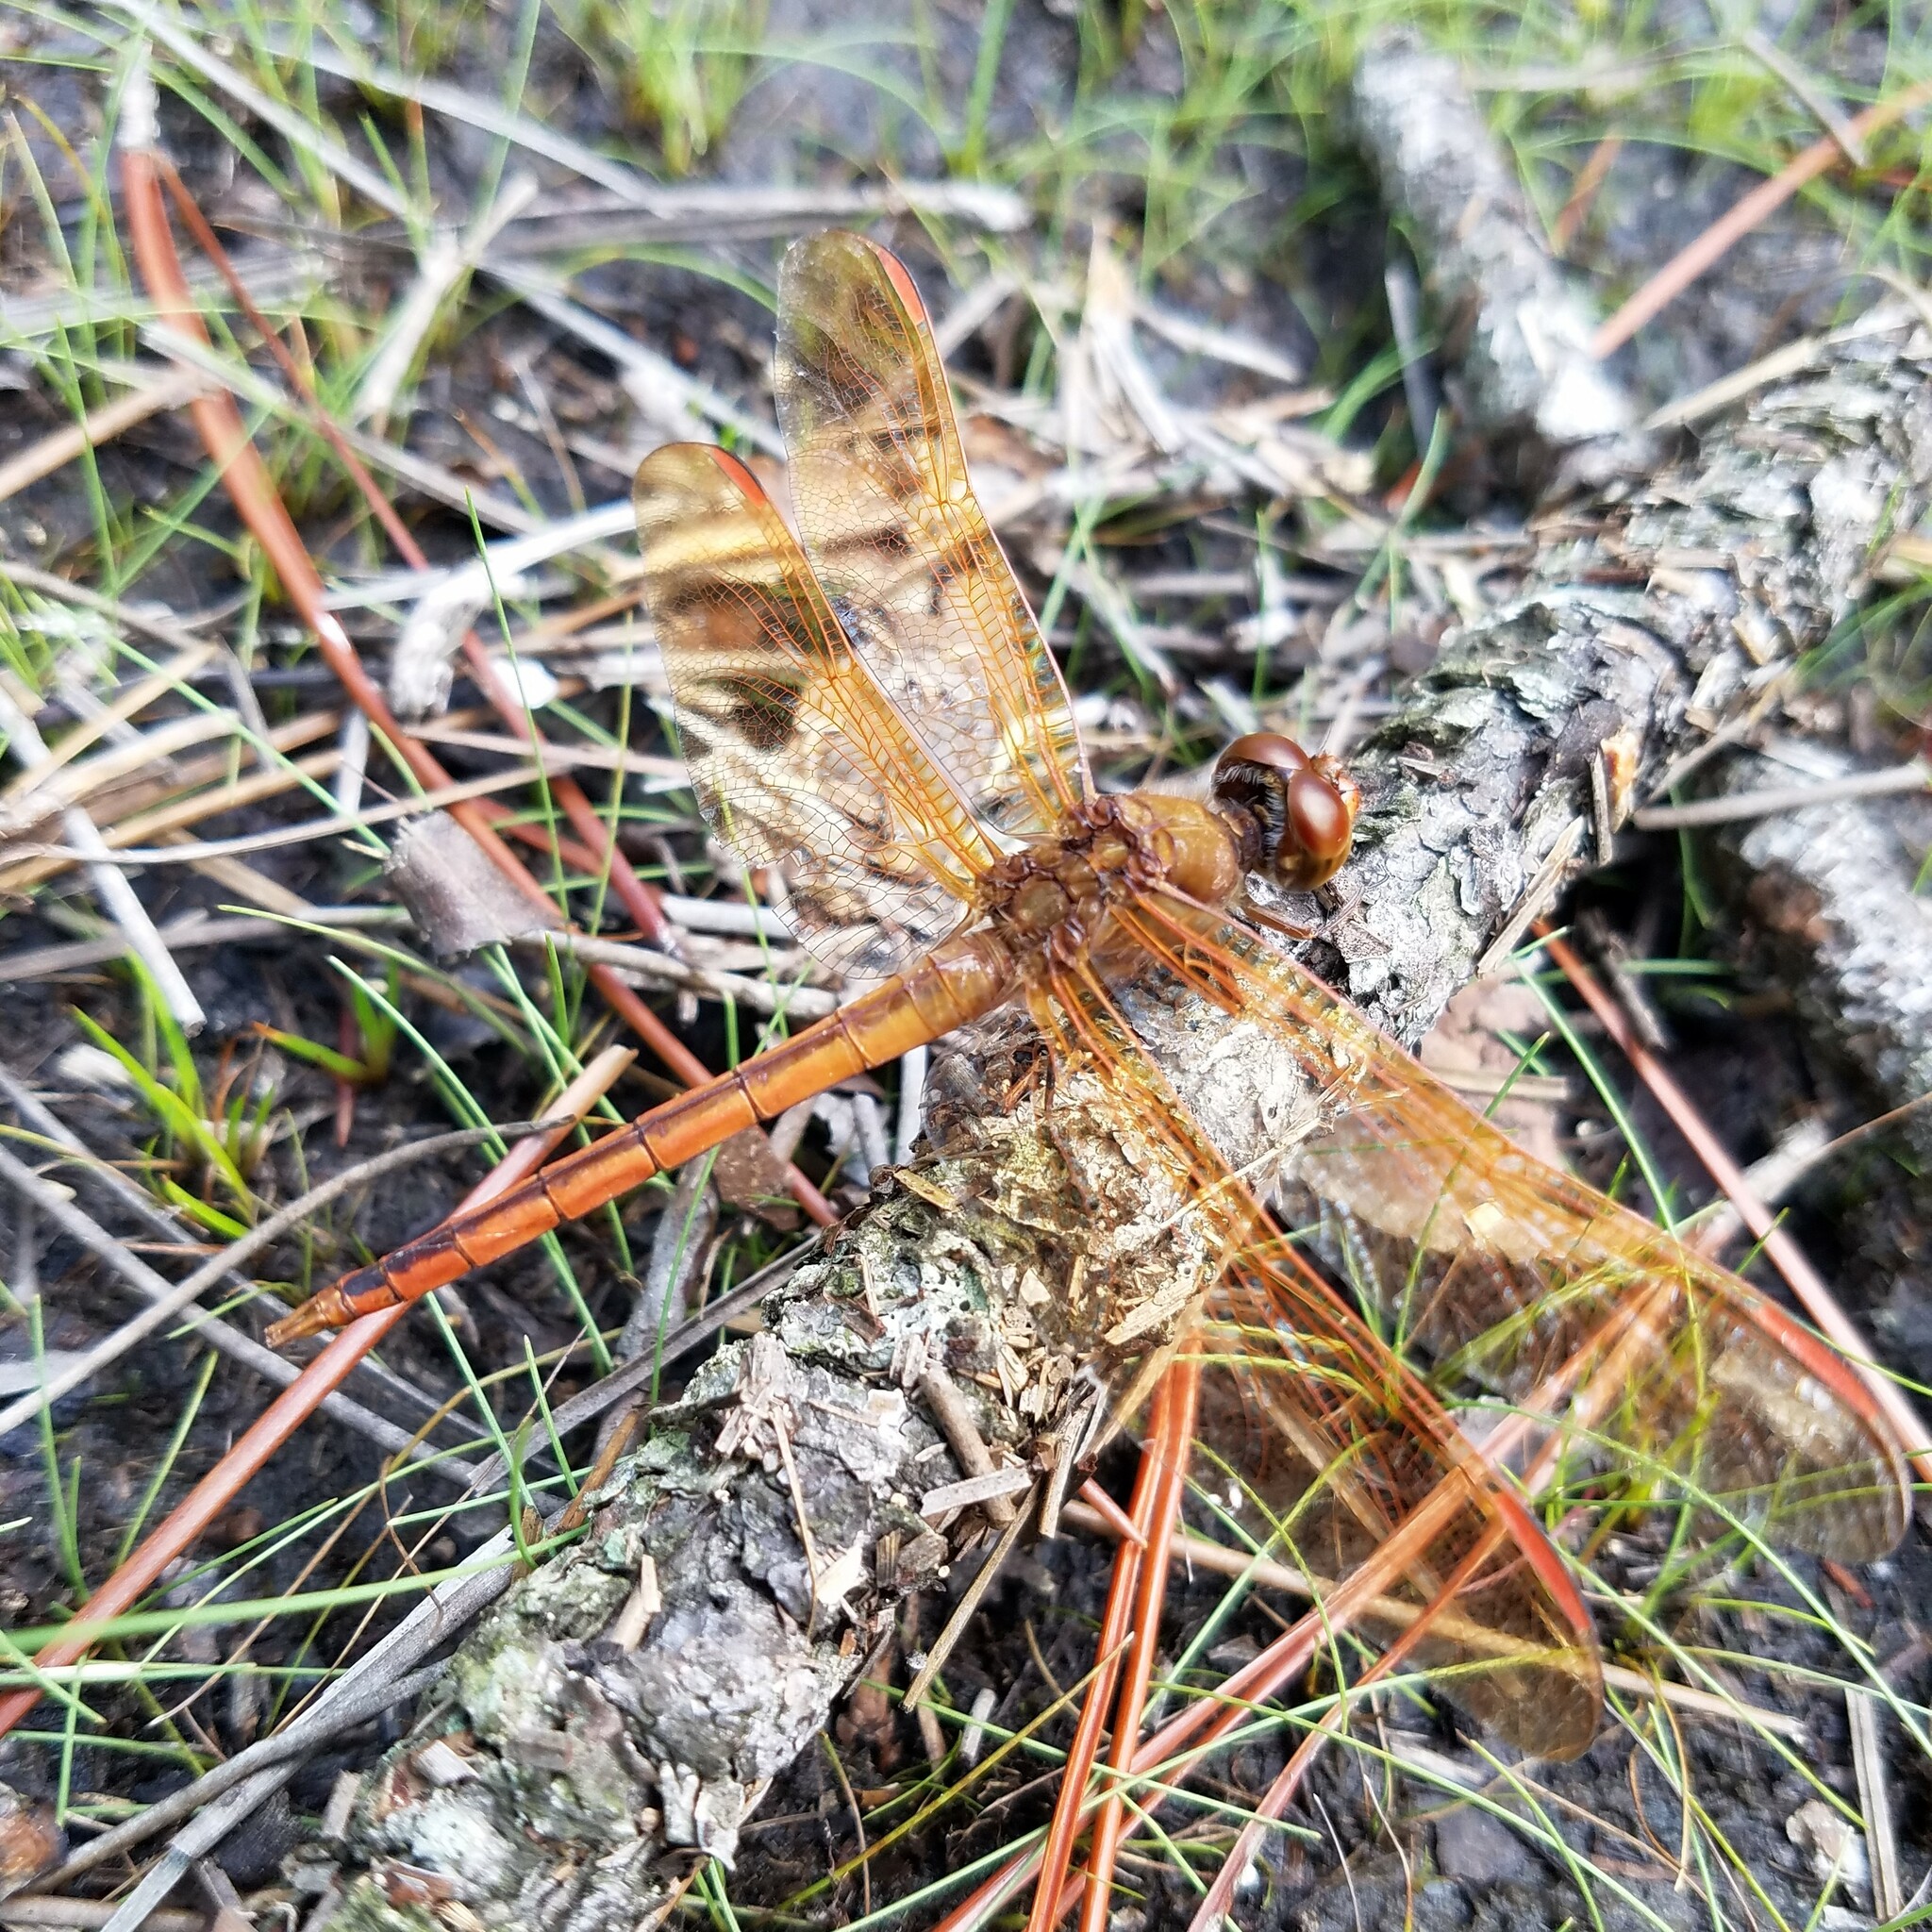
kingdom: Animalia
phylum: Arthropoda
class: Insecta
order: Odonata
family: Libellulidae
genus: Libellula
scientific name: Libellula auripennis
